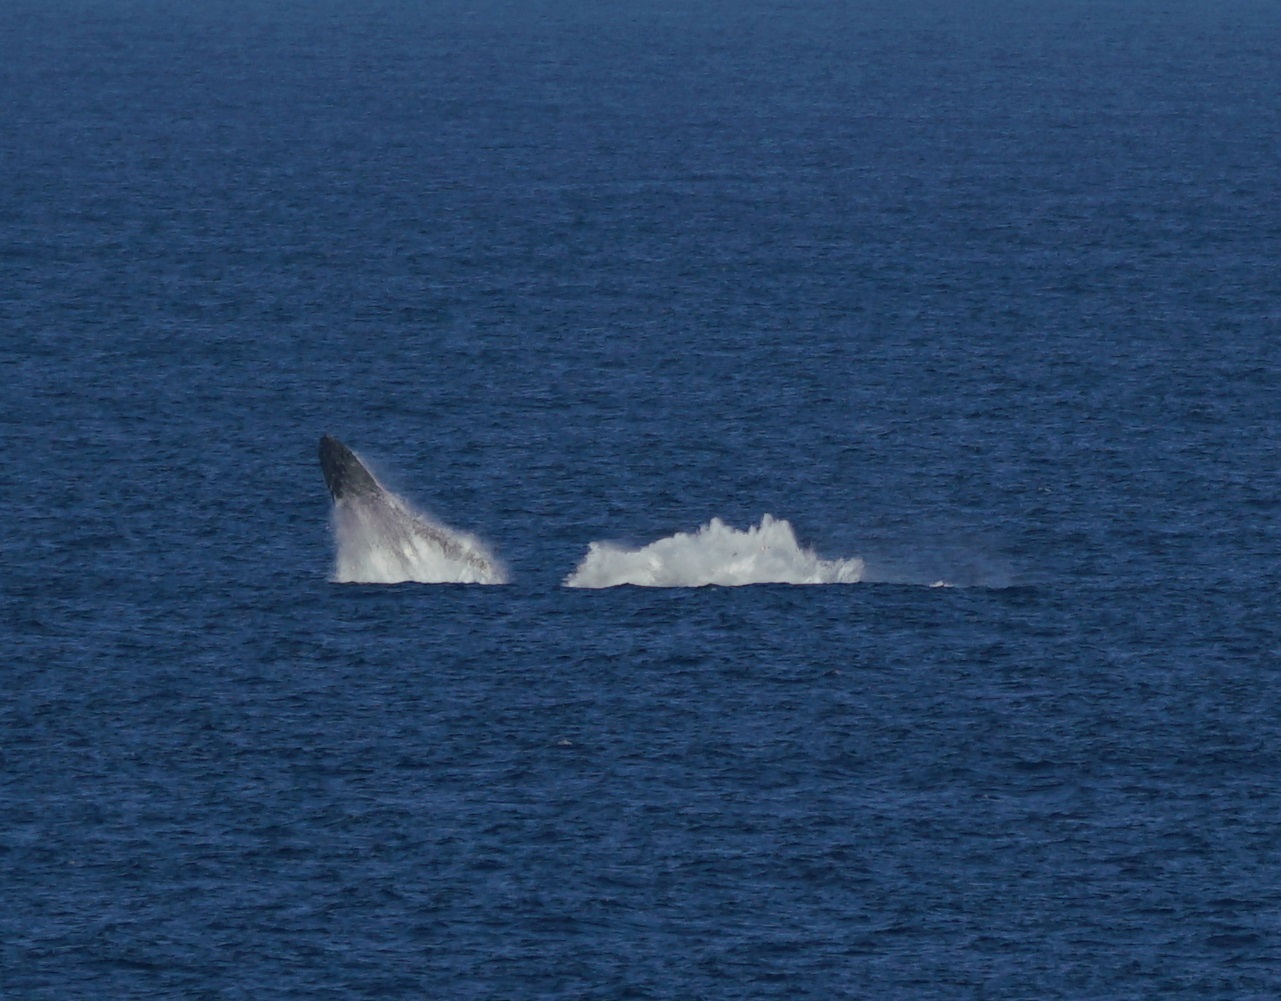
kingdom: Animalia
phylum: Chordata
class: Mammalia
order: Cetacea
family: Balaenopteridae
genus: Megaptera
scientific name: Megaptera novaeangliae
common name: Humpback whale
